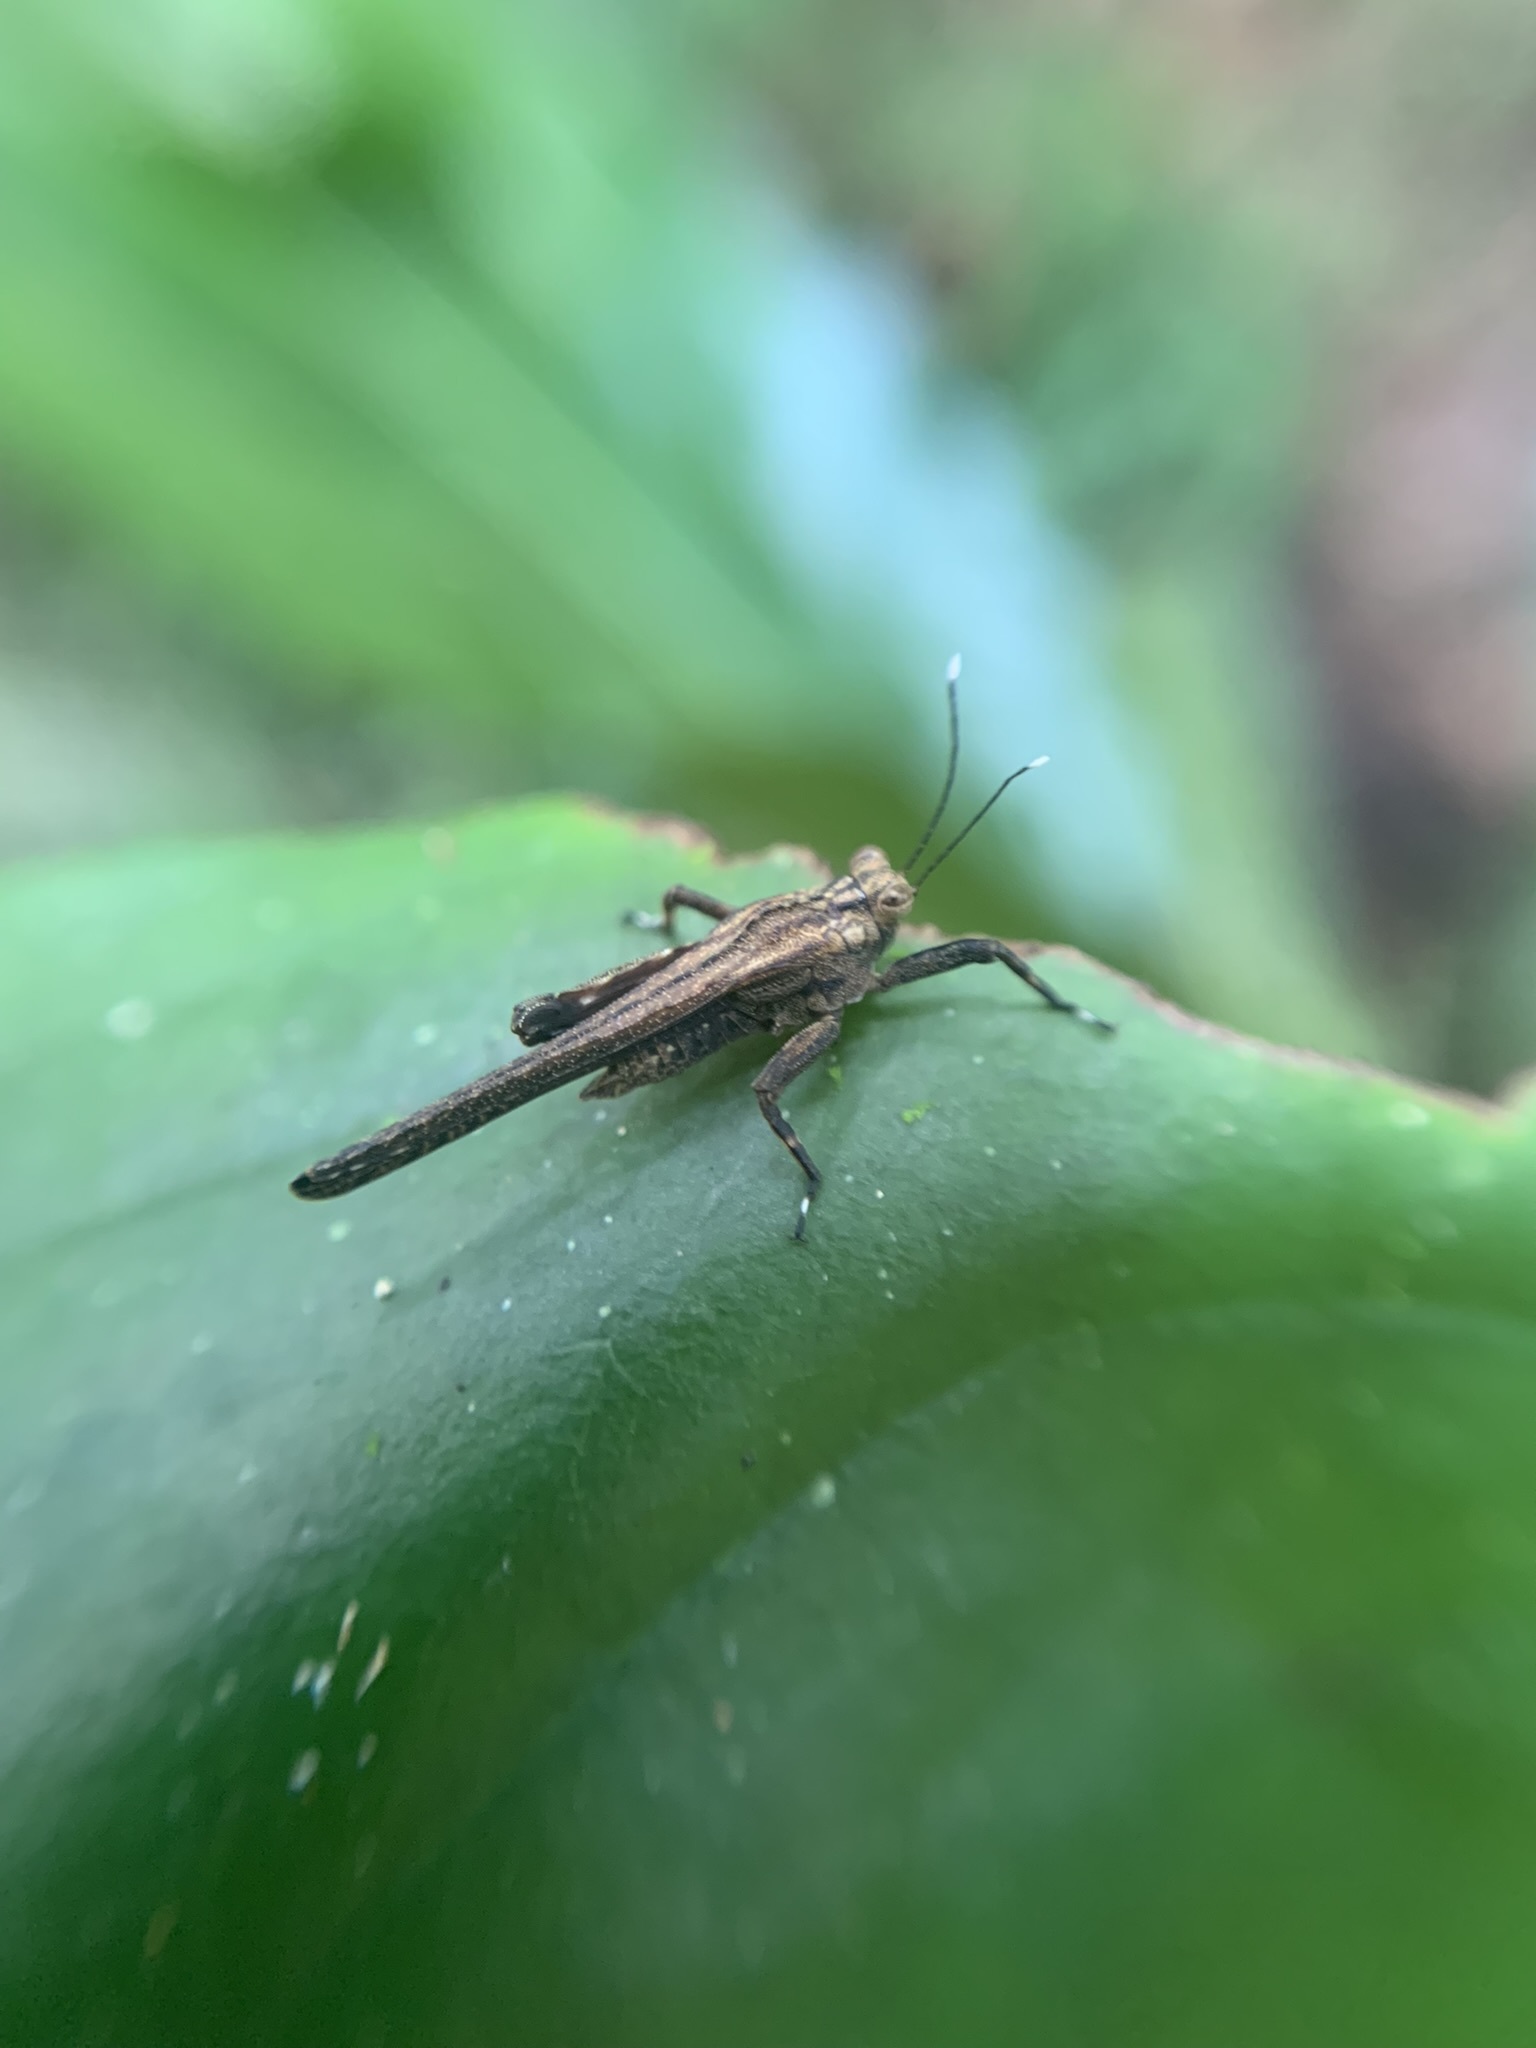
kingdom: Animalia
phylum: Arthropoda
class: Insecta
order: Orthoptera
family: Tetrigidae
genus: Phelene
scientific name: Phelene maroon
